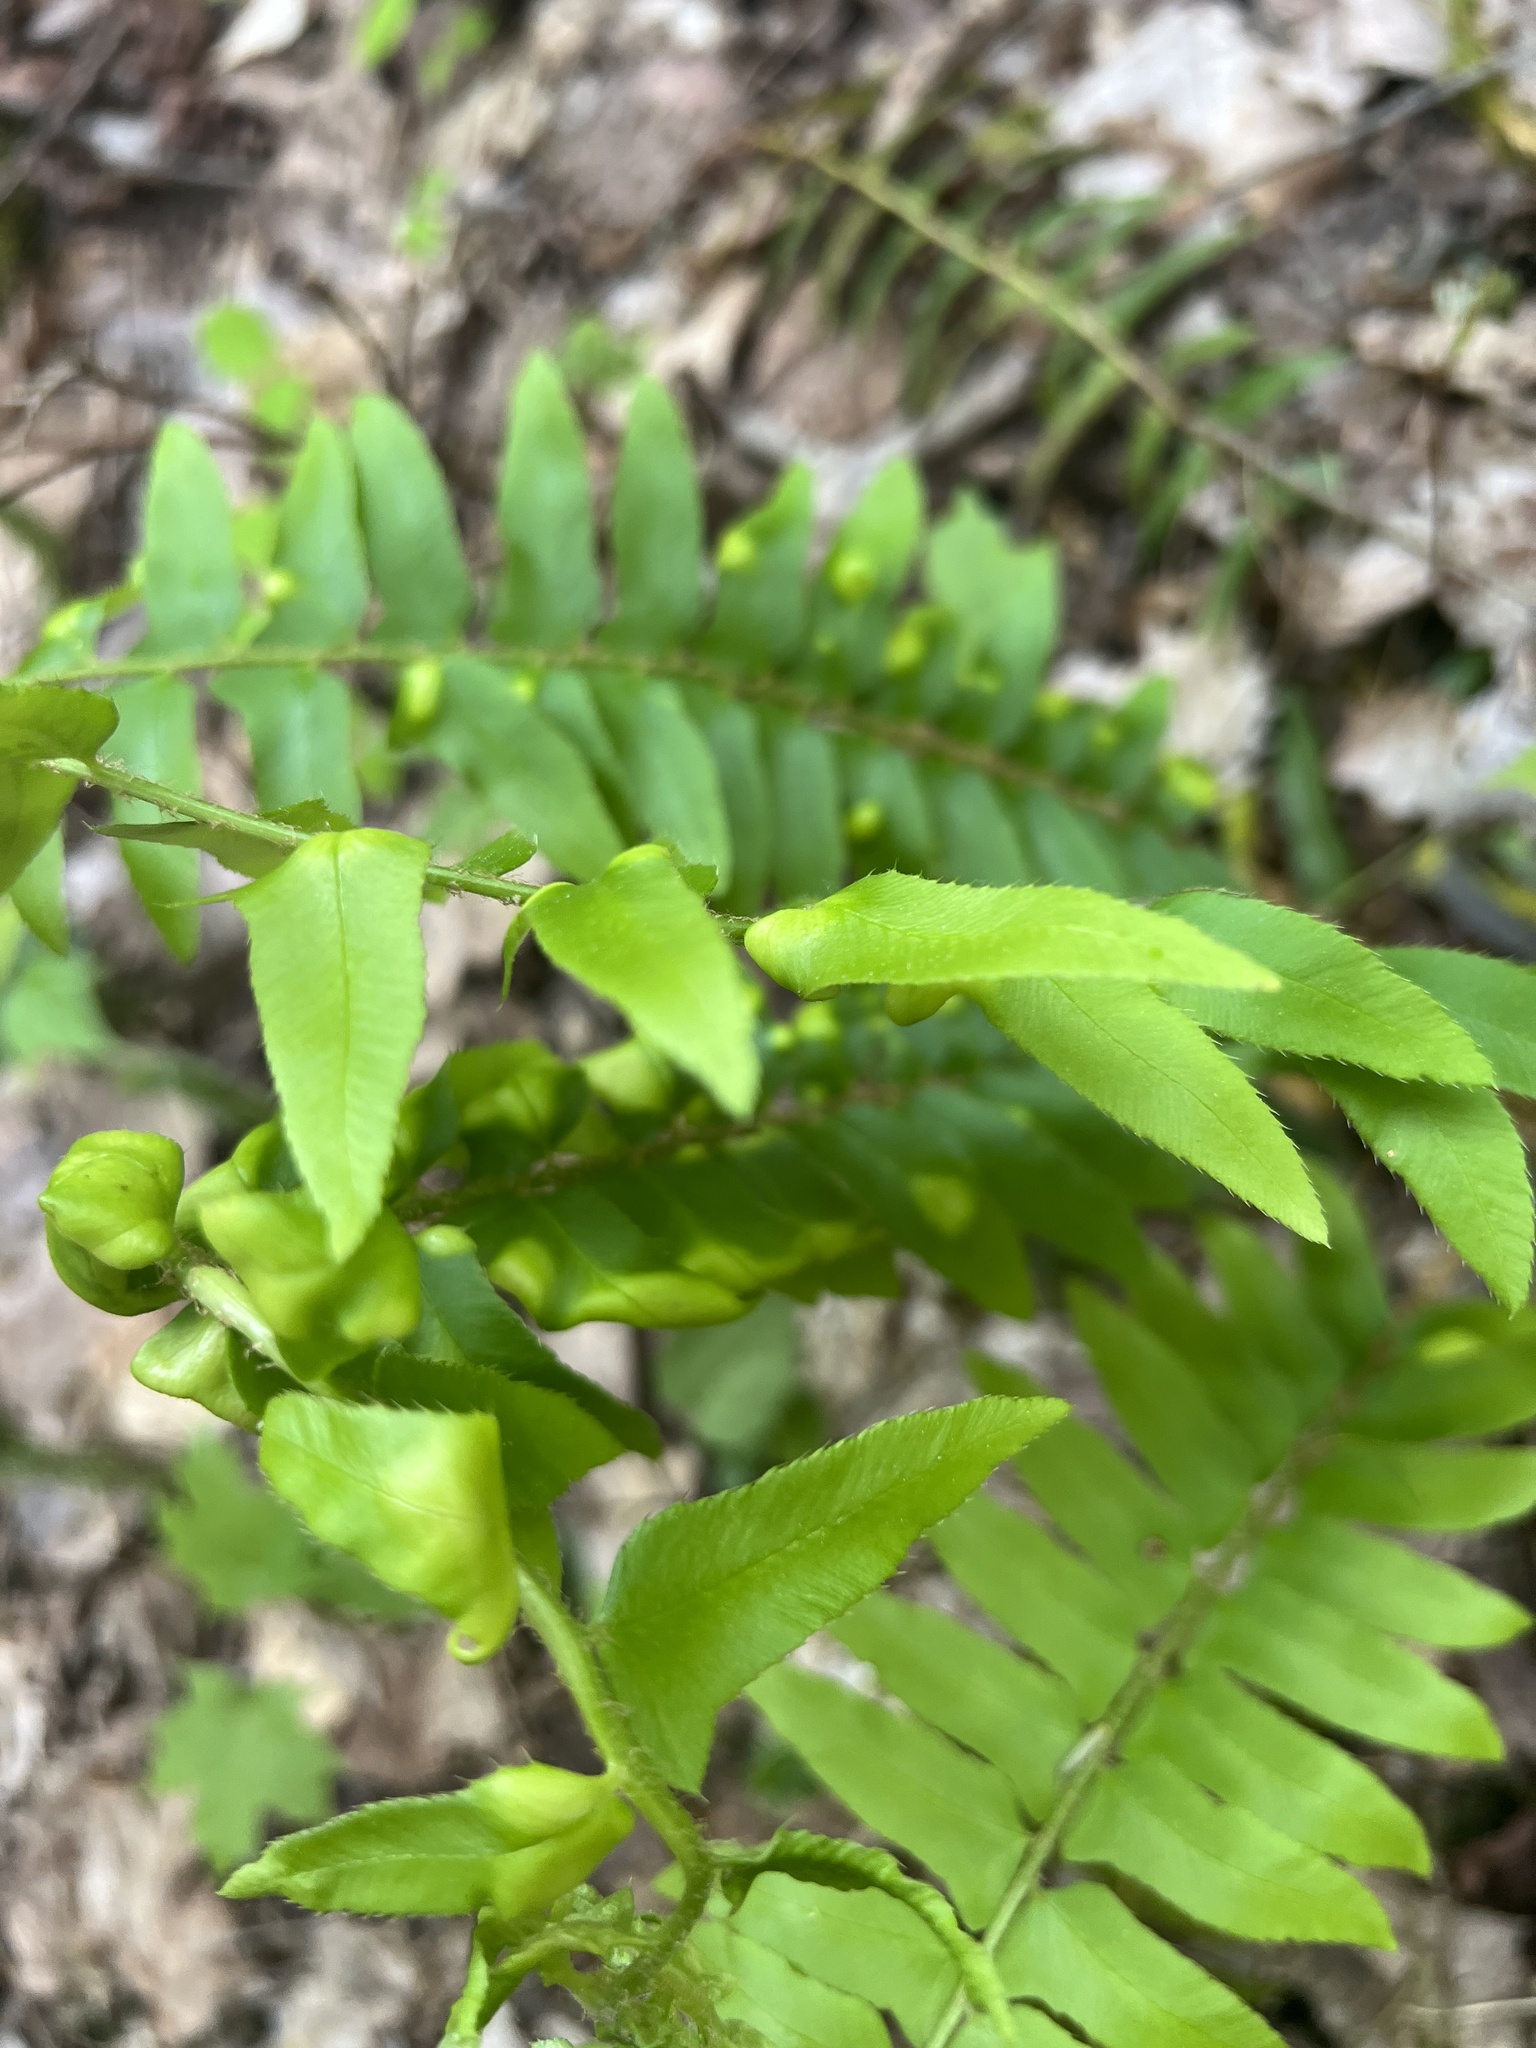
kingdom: Fungi
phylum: Ascomycota
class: Taphrinomycetes
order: Taphrinales
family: Taphrinaceae
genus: Taphrina
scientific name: Taphrina polystichi
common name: Christmas fern leaf curl
